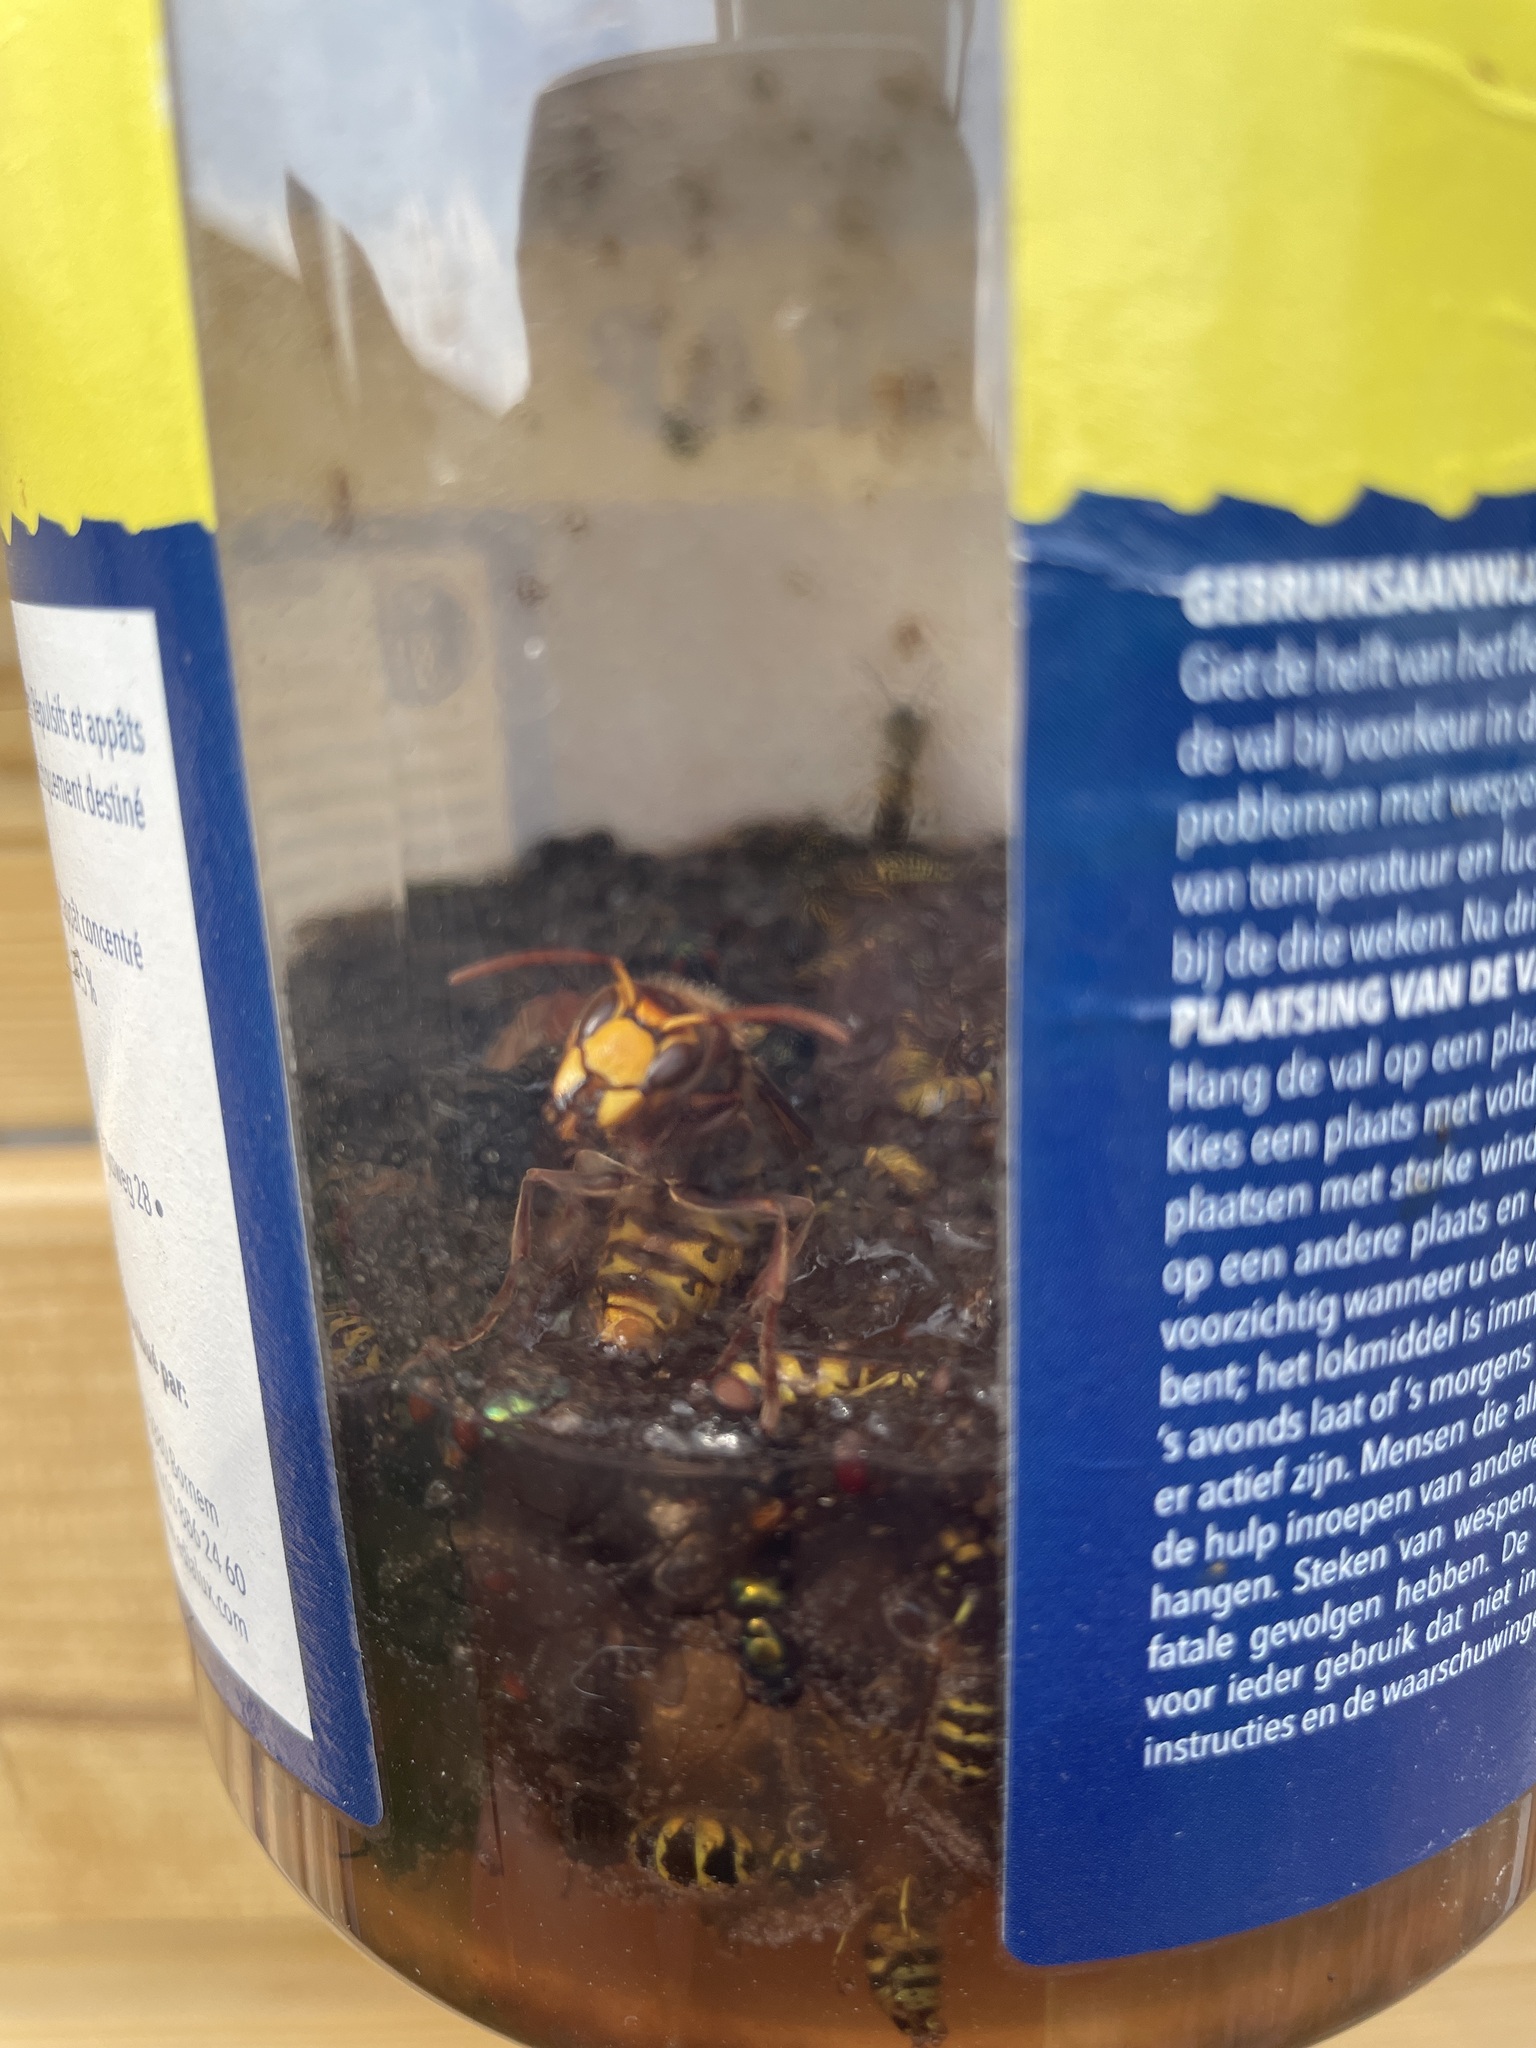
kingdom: Animalia
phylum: Arthropoda
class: Insecta
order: Hymenoptera
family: Vespidae
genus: Vespa
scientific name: Vespa crabro
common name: Hornet
